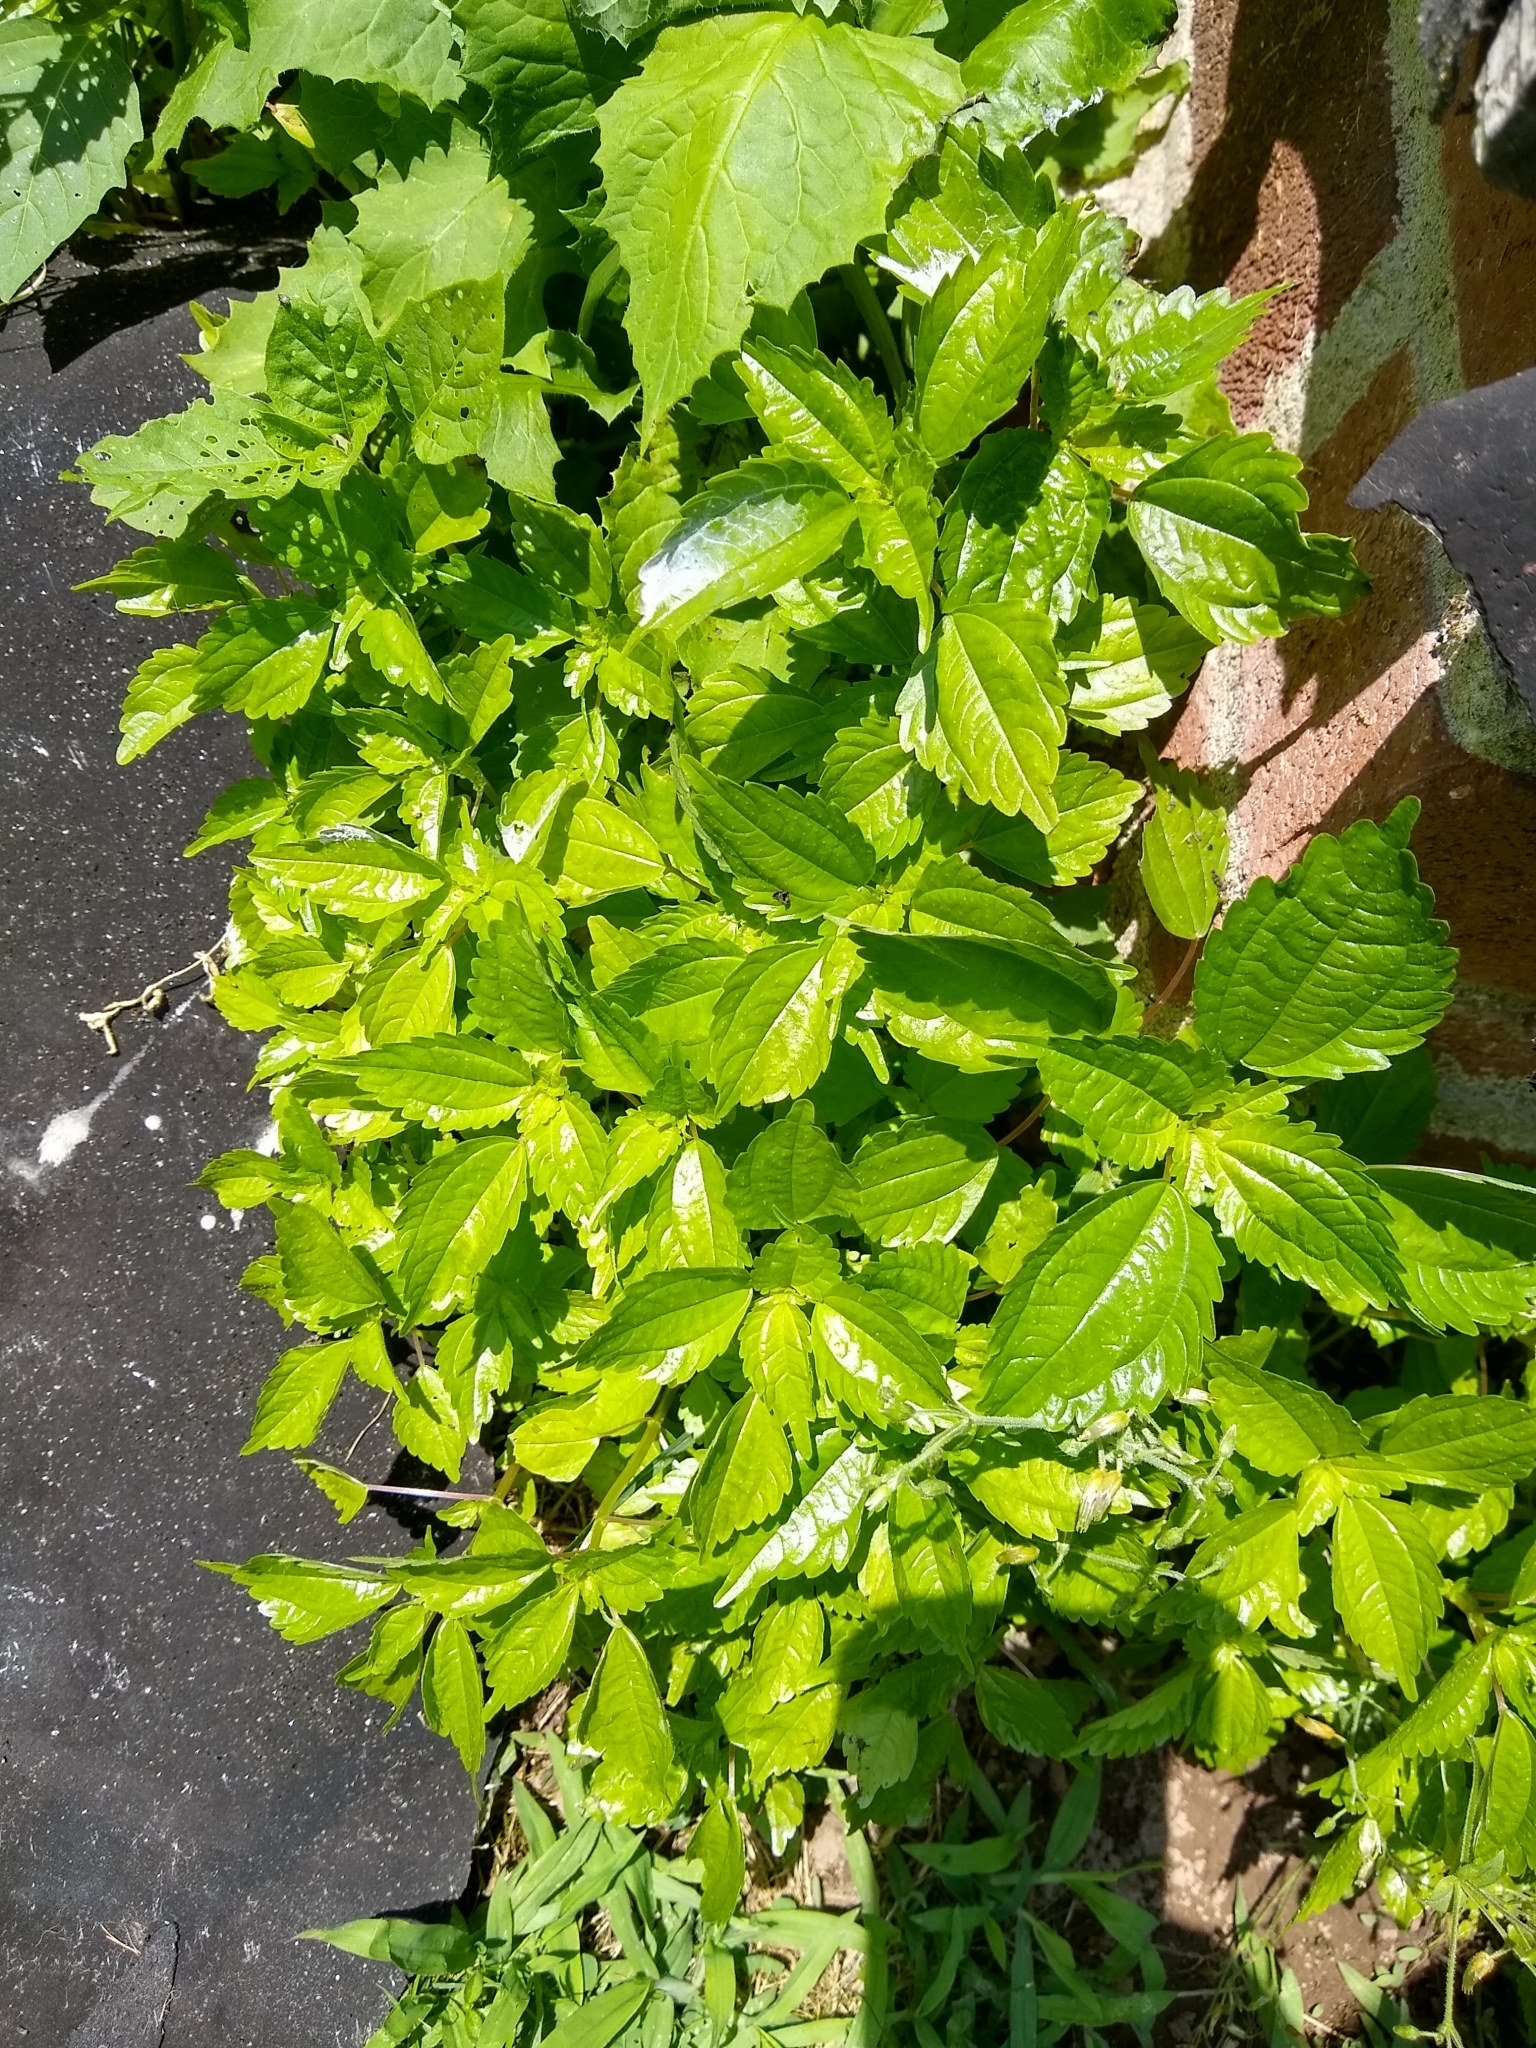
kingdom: Plantae
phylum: Tracheophyta
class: Magnoliopsida
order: Rosales
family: Urticaceae
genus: Pilea
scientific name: Pilea pumila
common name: Clearweed
